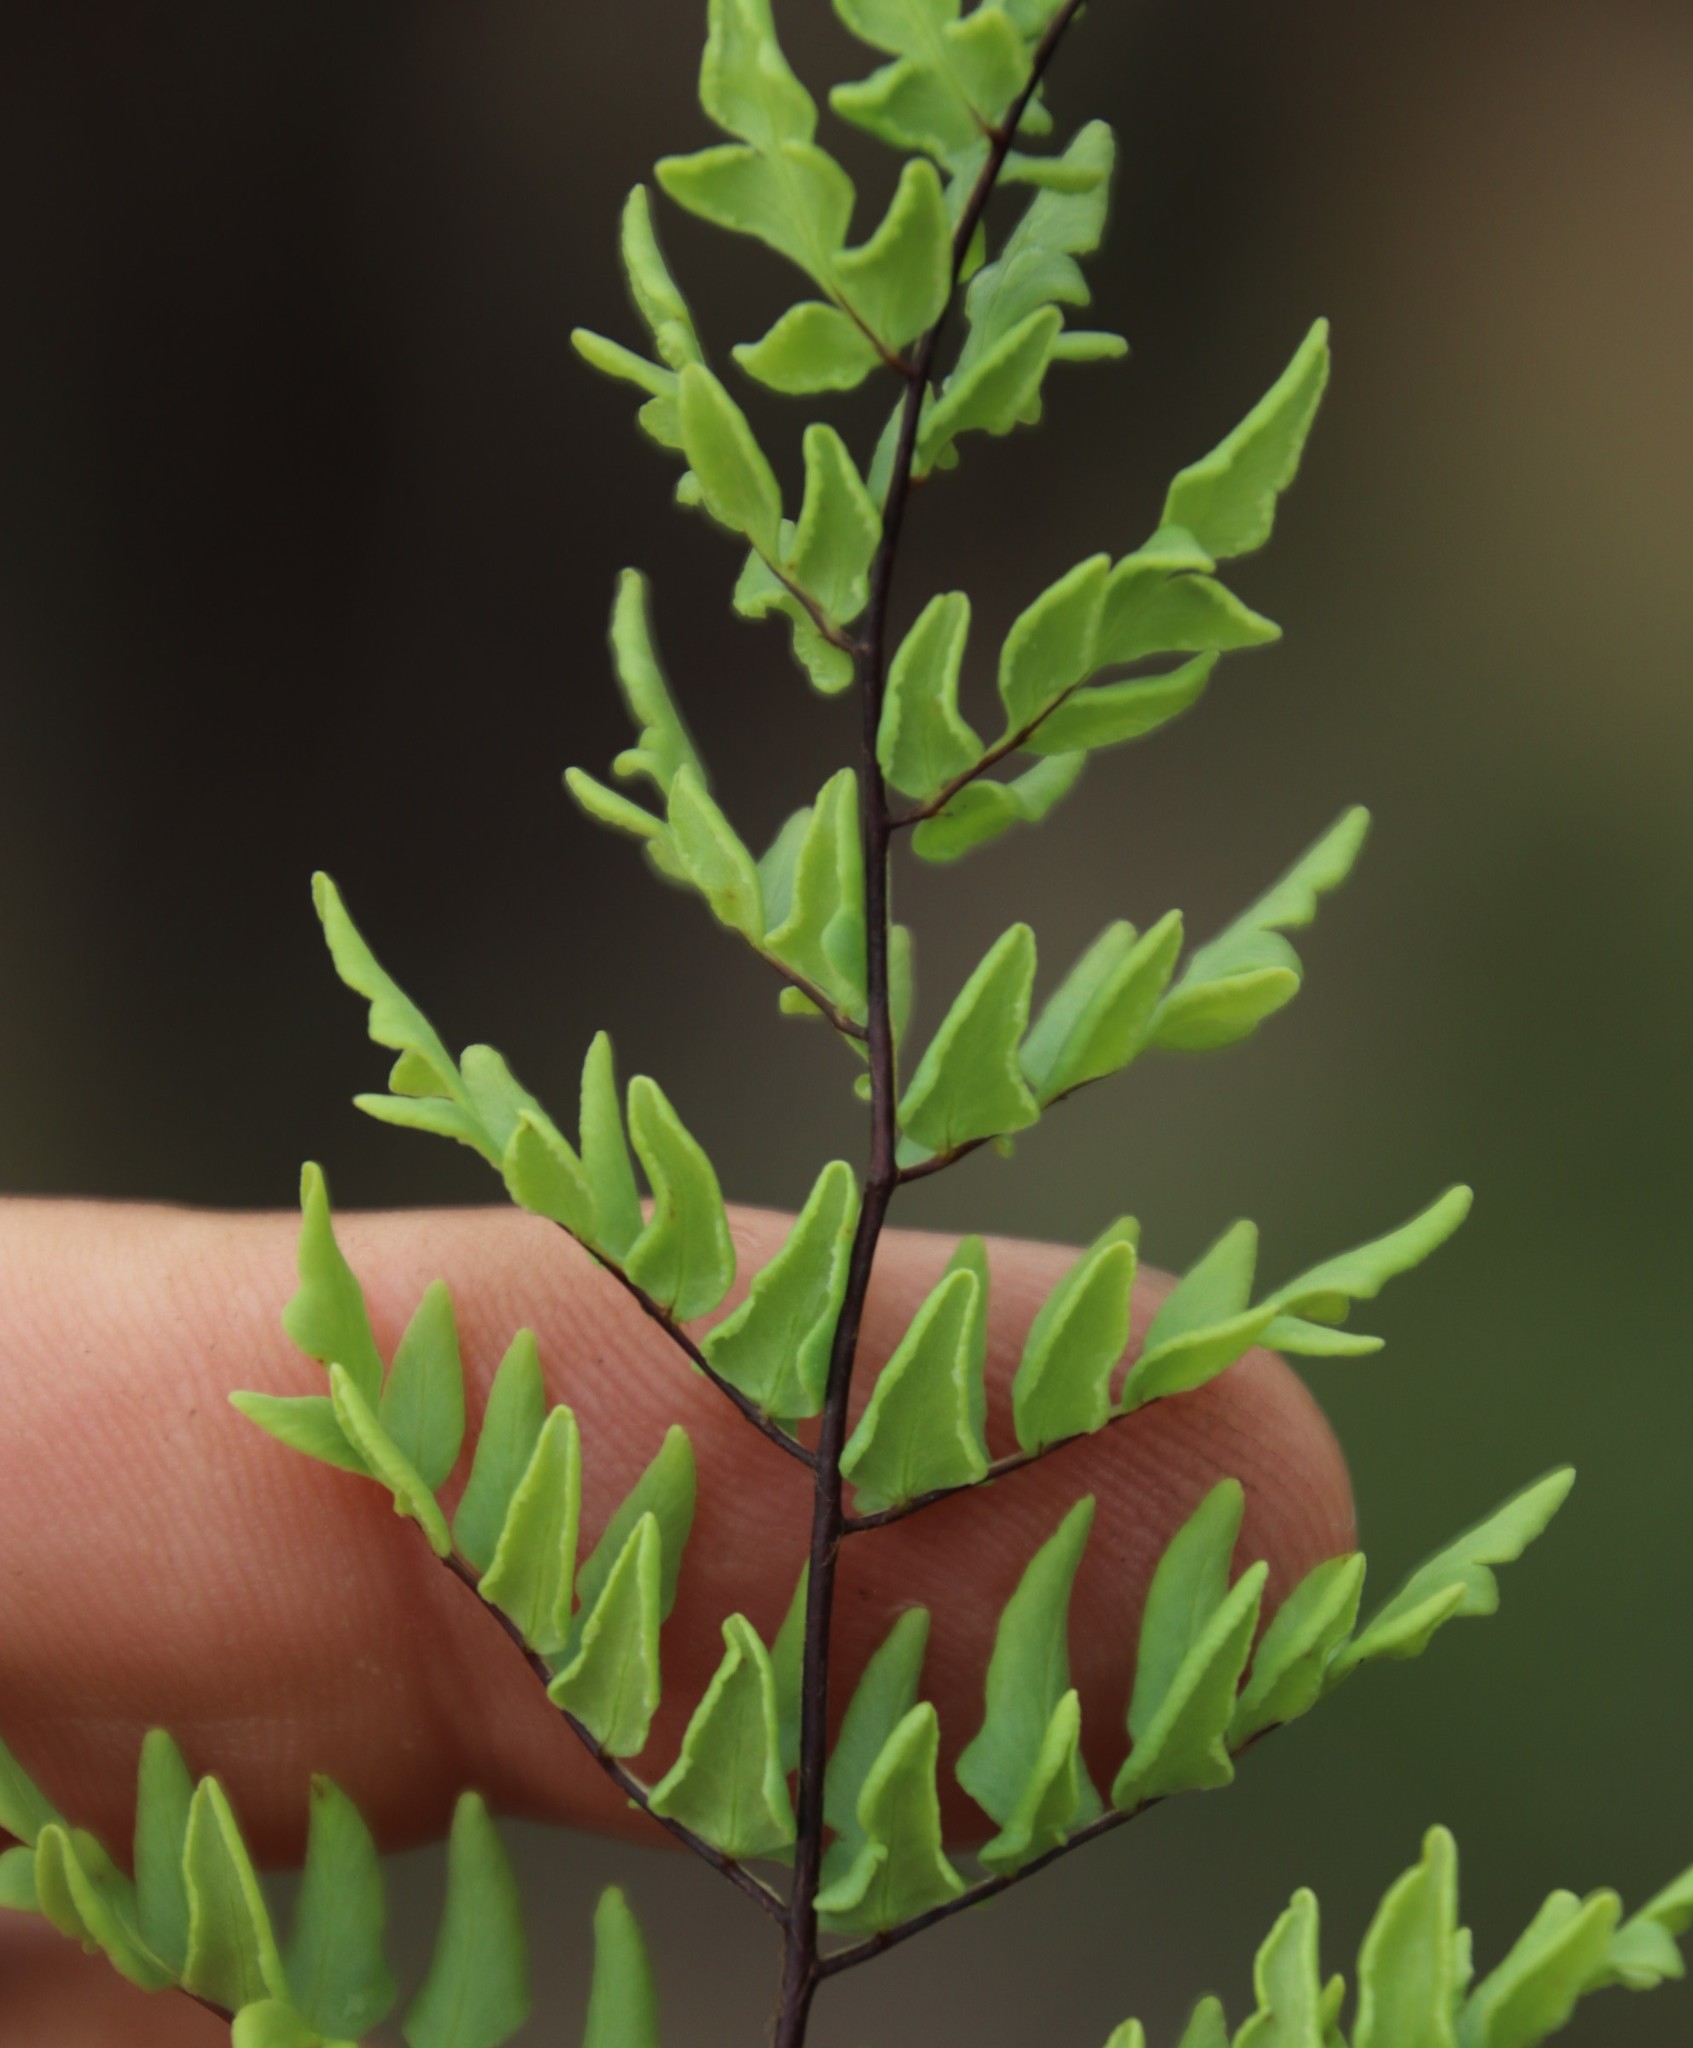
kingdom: Plantae
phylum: Tracheophyta
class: Polypodiopsida
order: Polypodiales
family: Pteridaceae
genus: Cheilanthes
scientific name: Cheilanthes viridis
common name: Green cliffbrake
